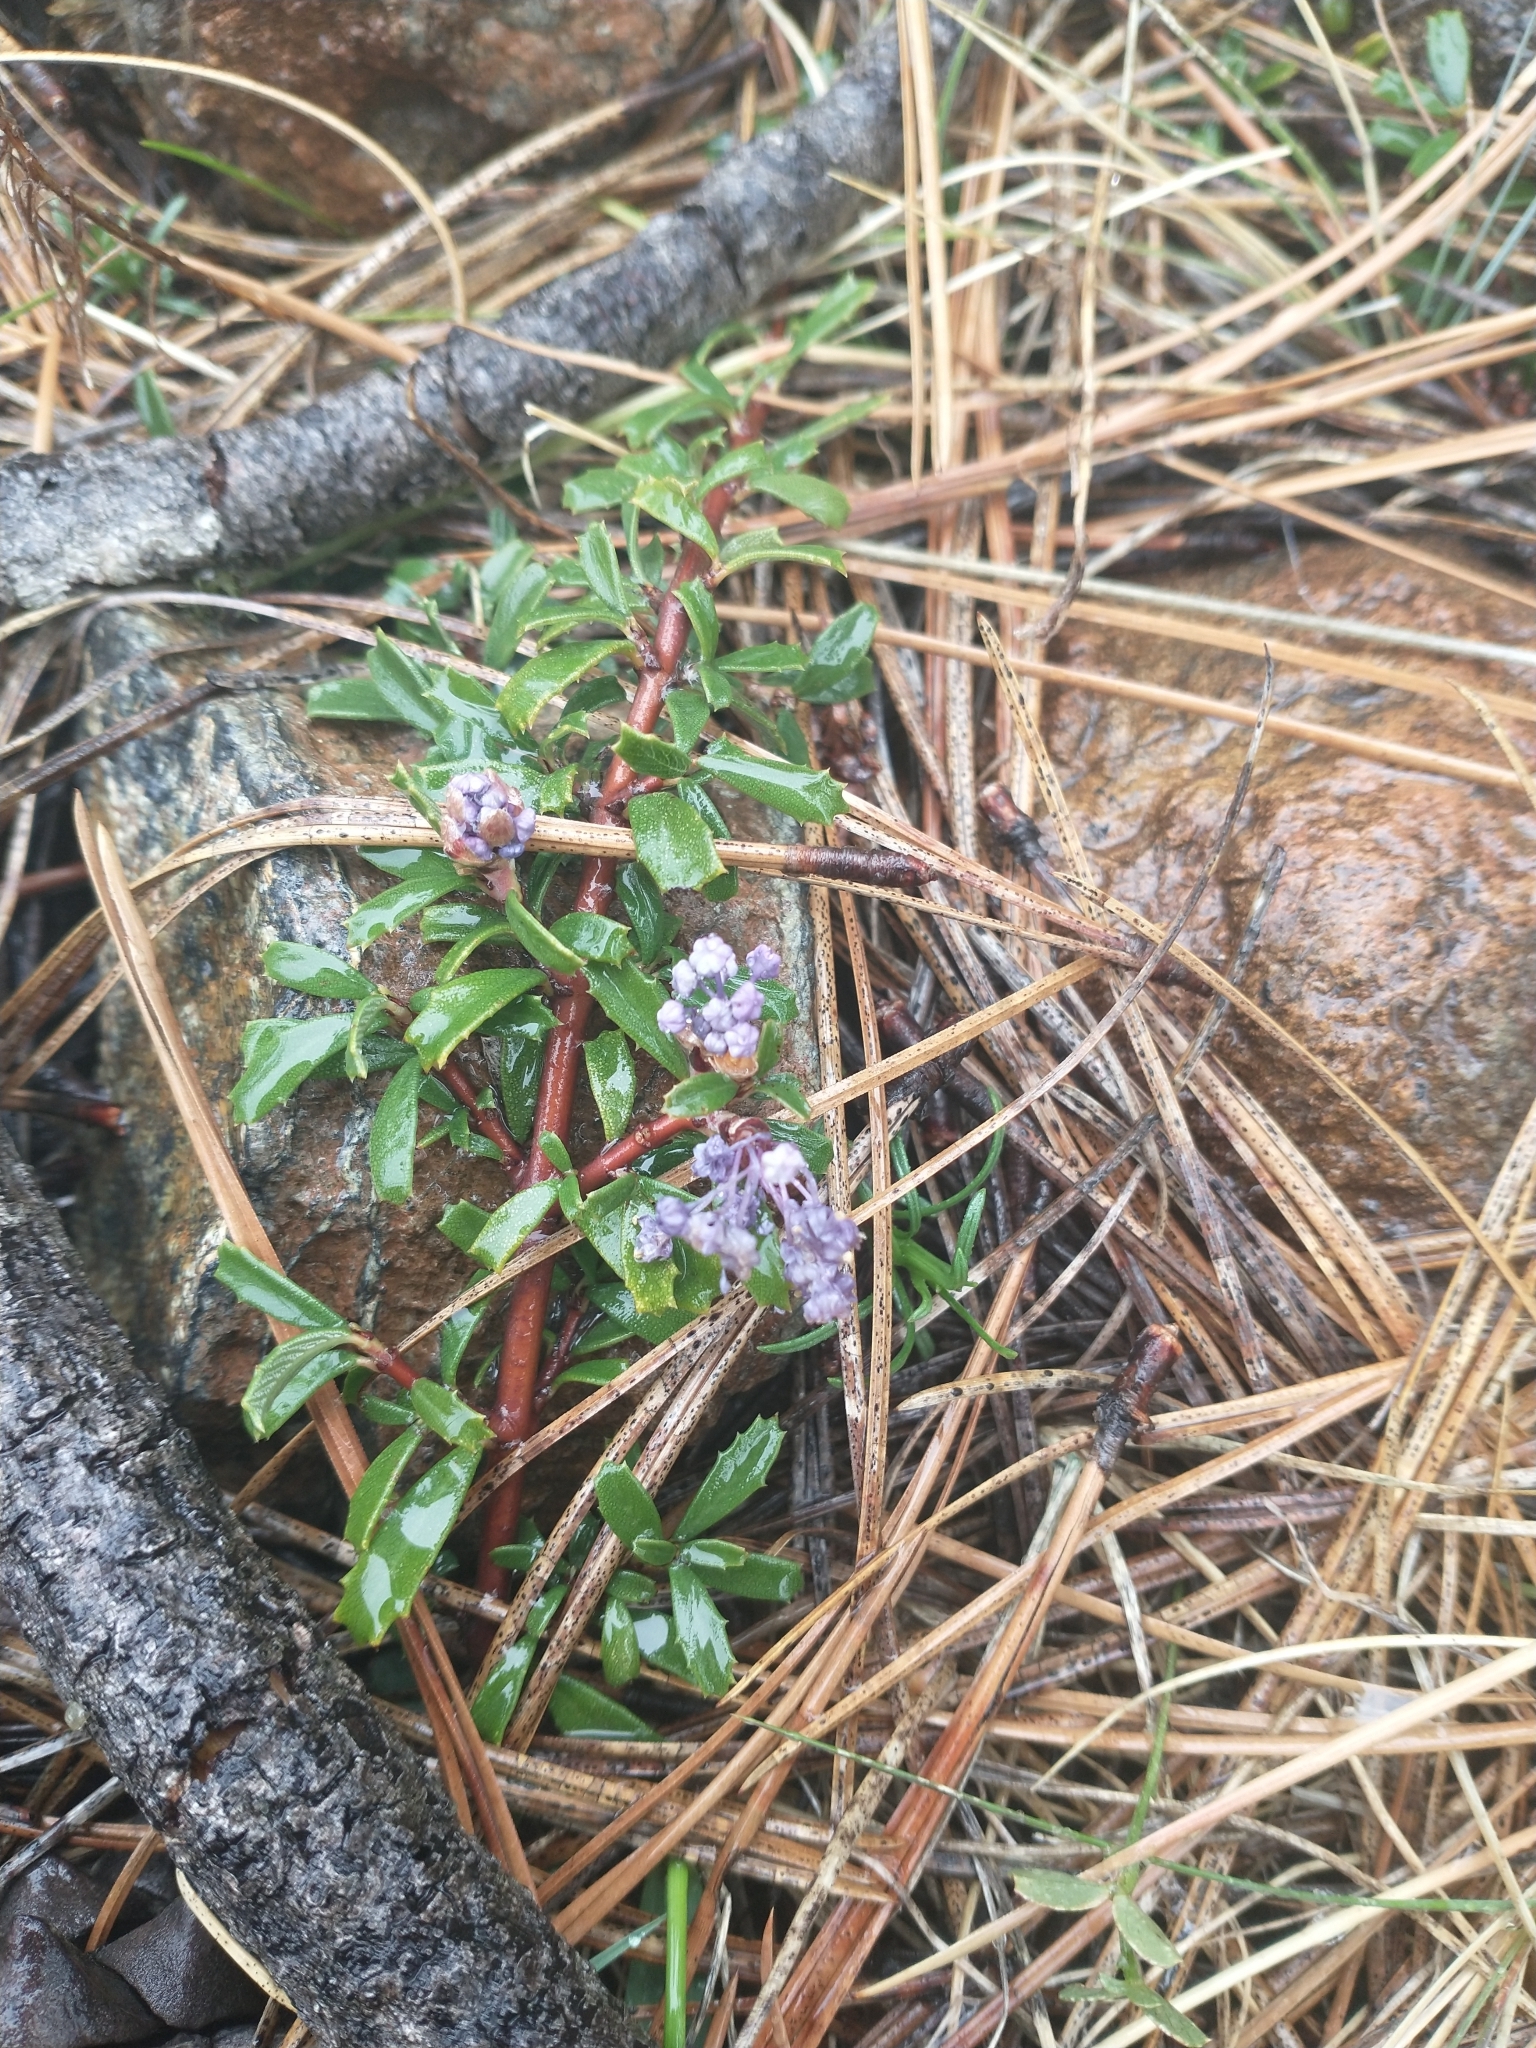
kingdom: Plantae
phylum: Tracheophyta
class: Magnoliopsida
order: Rosales
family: Rhamnaceae
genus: Ceanothus
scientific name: Ceanothus pumilus
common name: Siskiyou-mat
